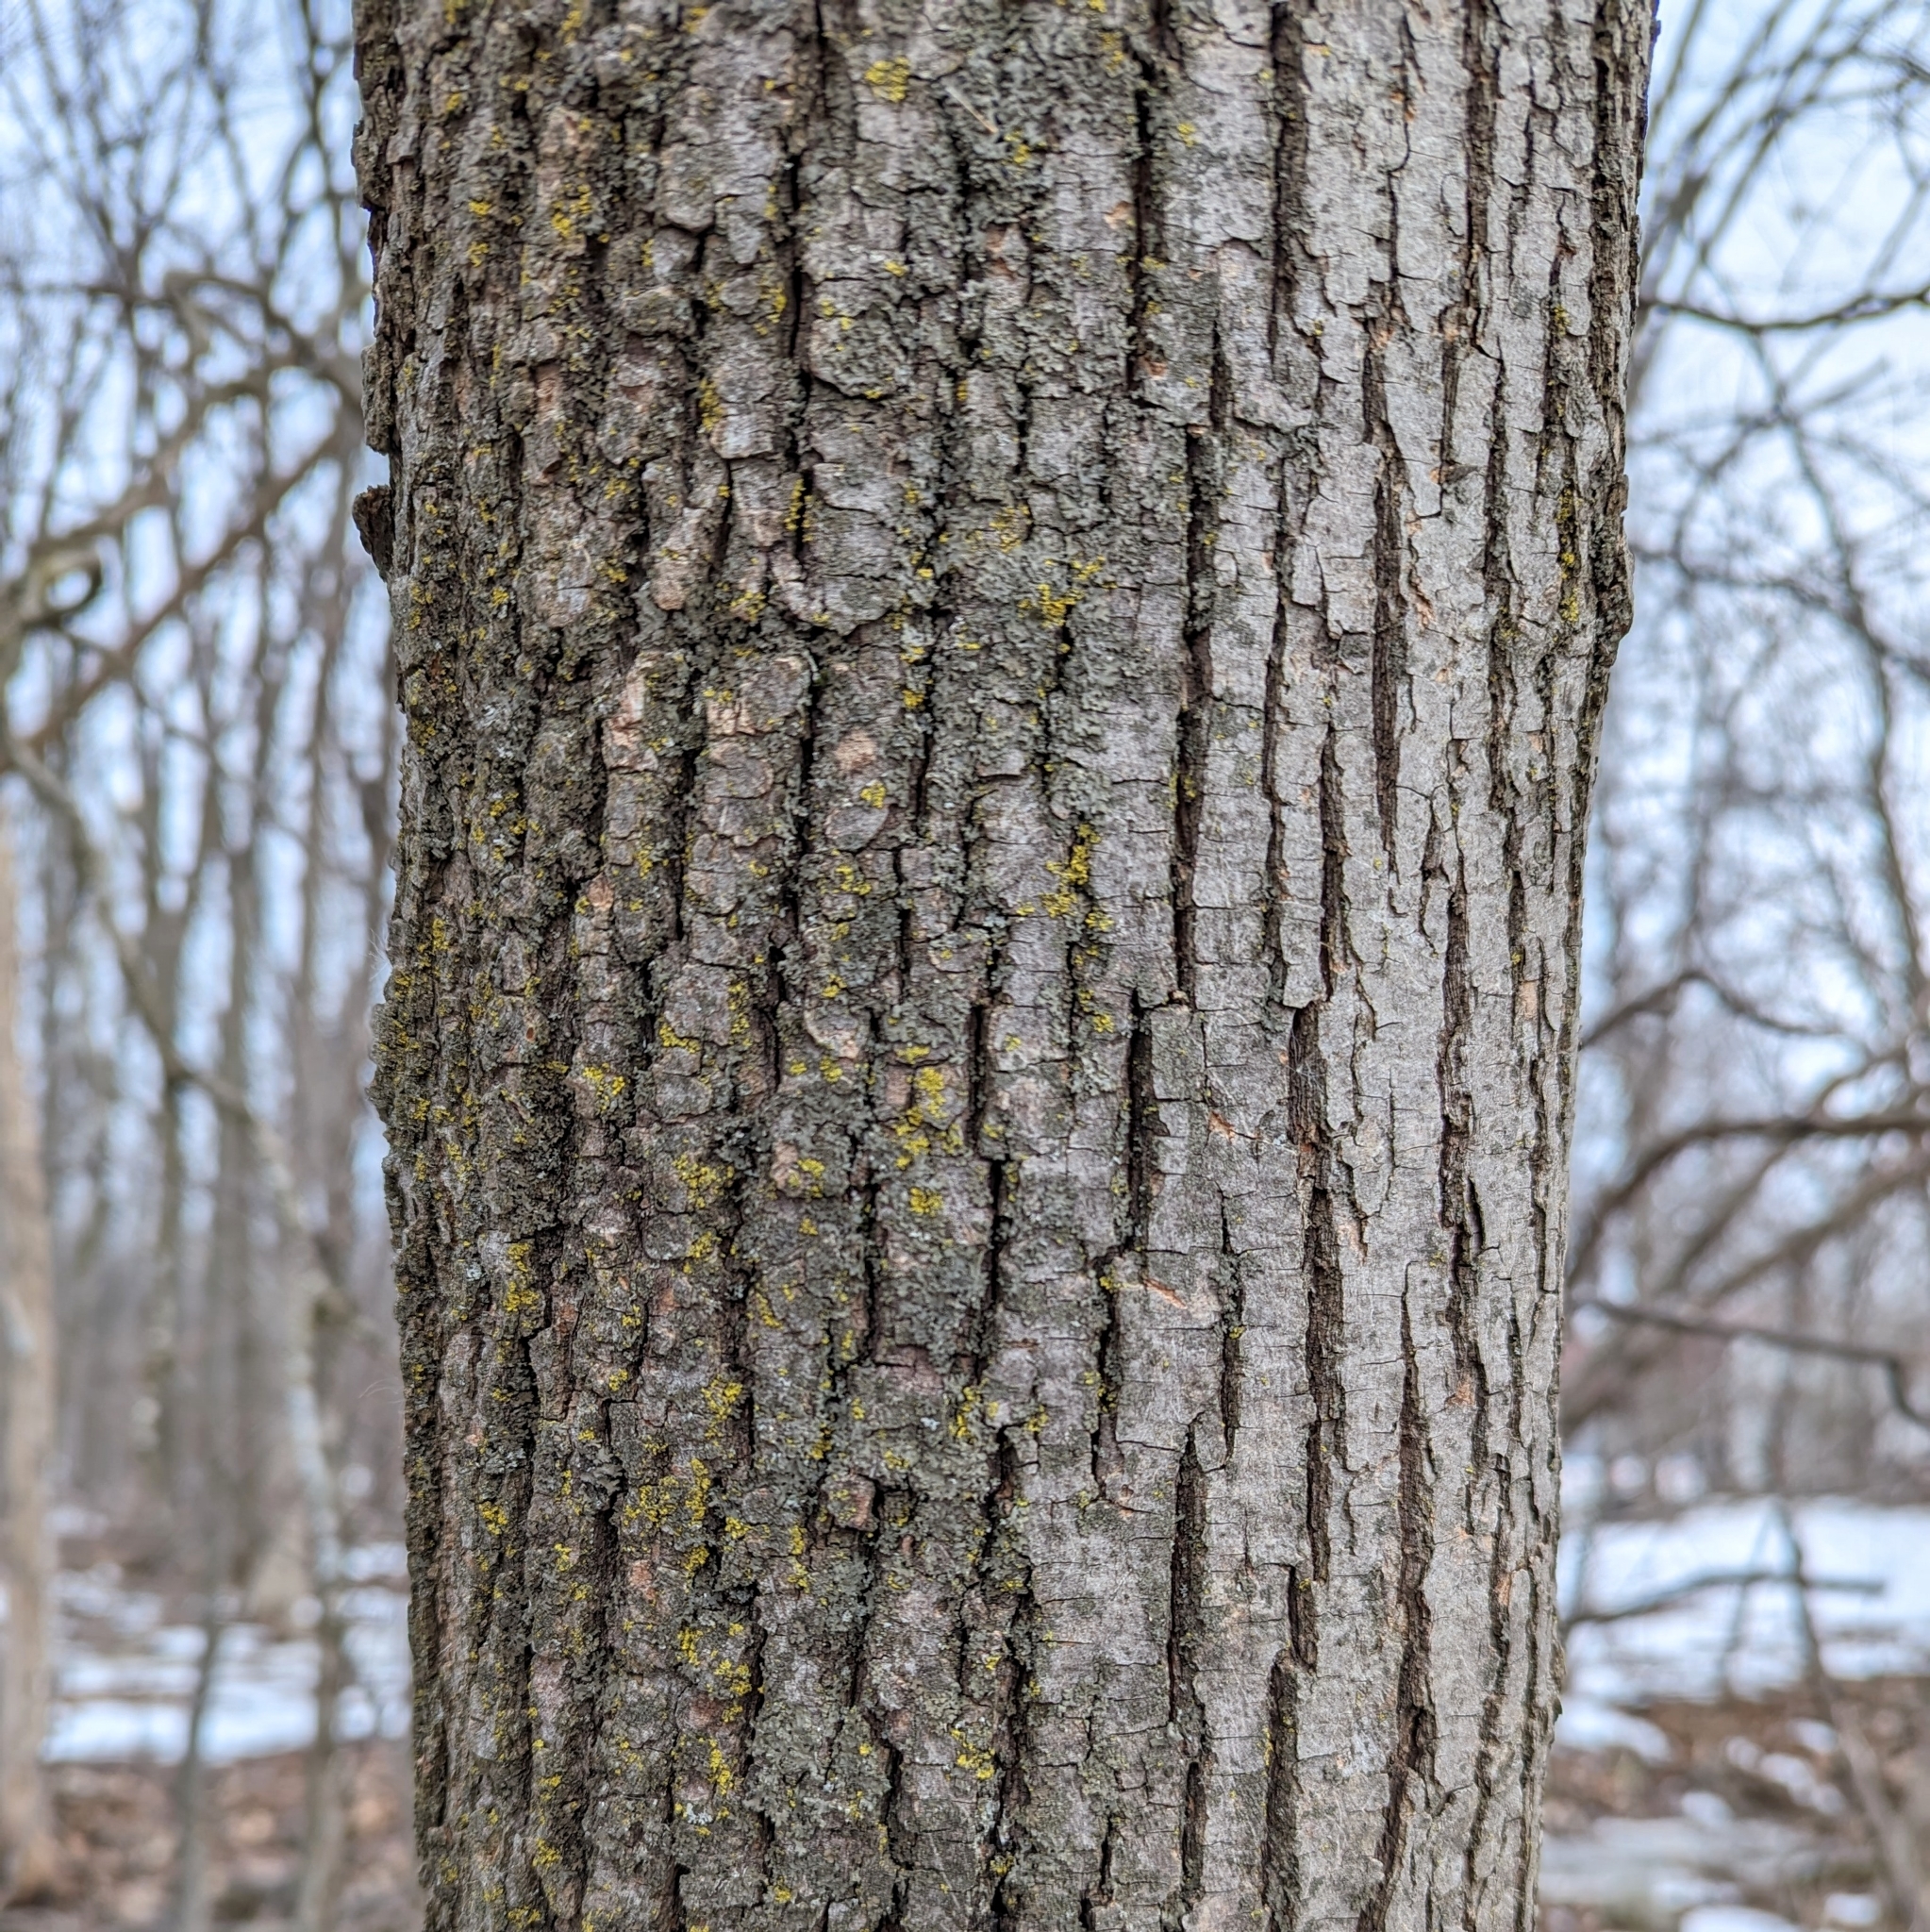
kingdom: Plantae
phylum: Tracheophyta
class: Magnoliopsida
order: Malvales
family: Malvaceae
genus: Tilia
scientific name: Tilia americana
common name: Basswood
